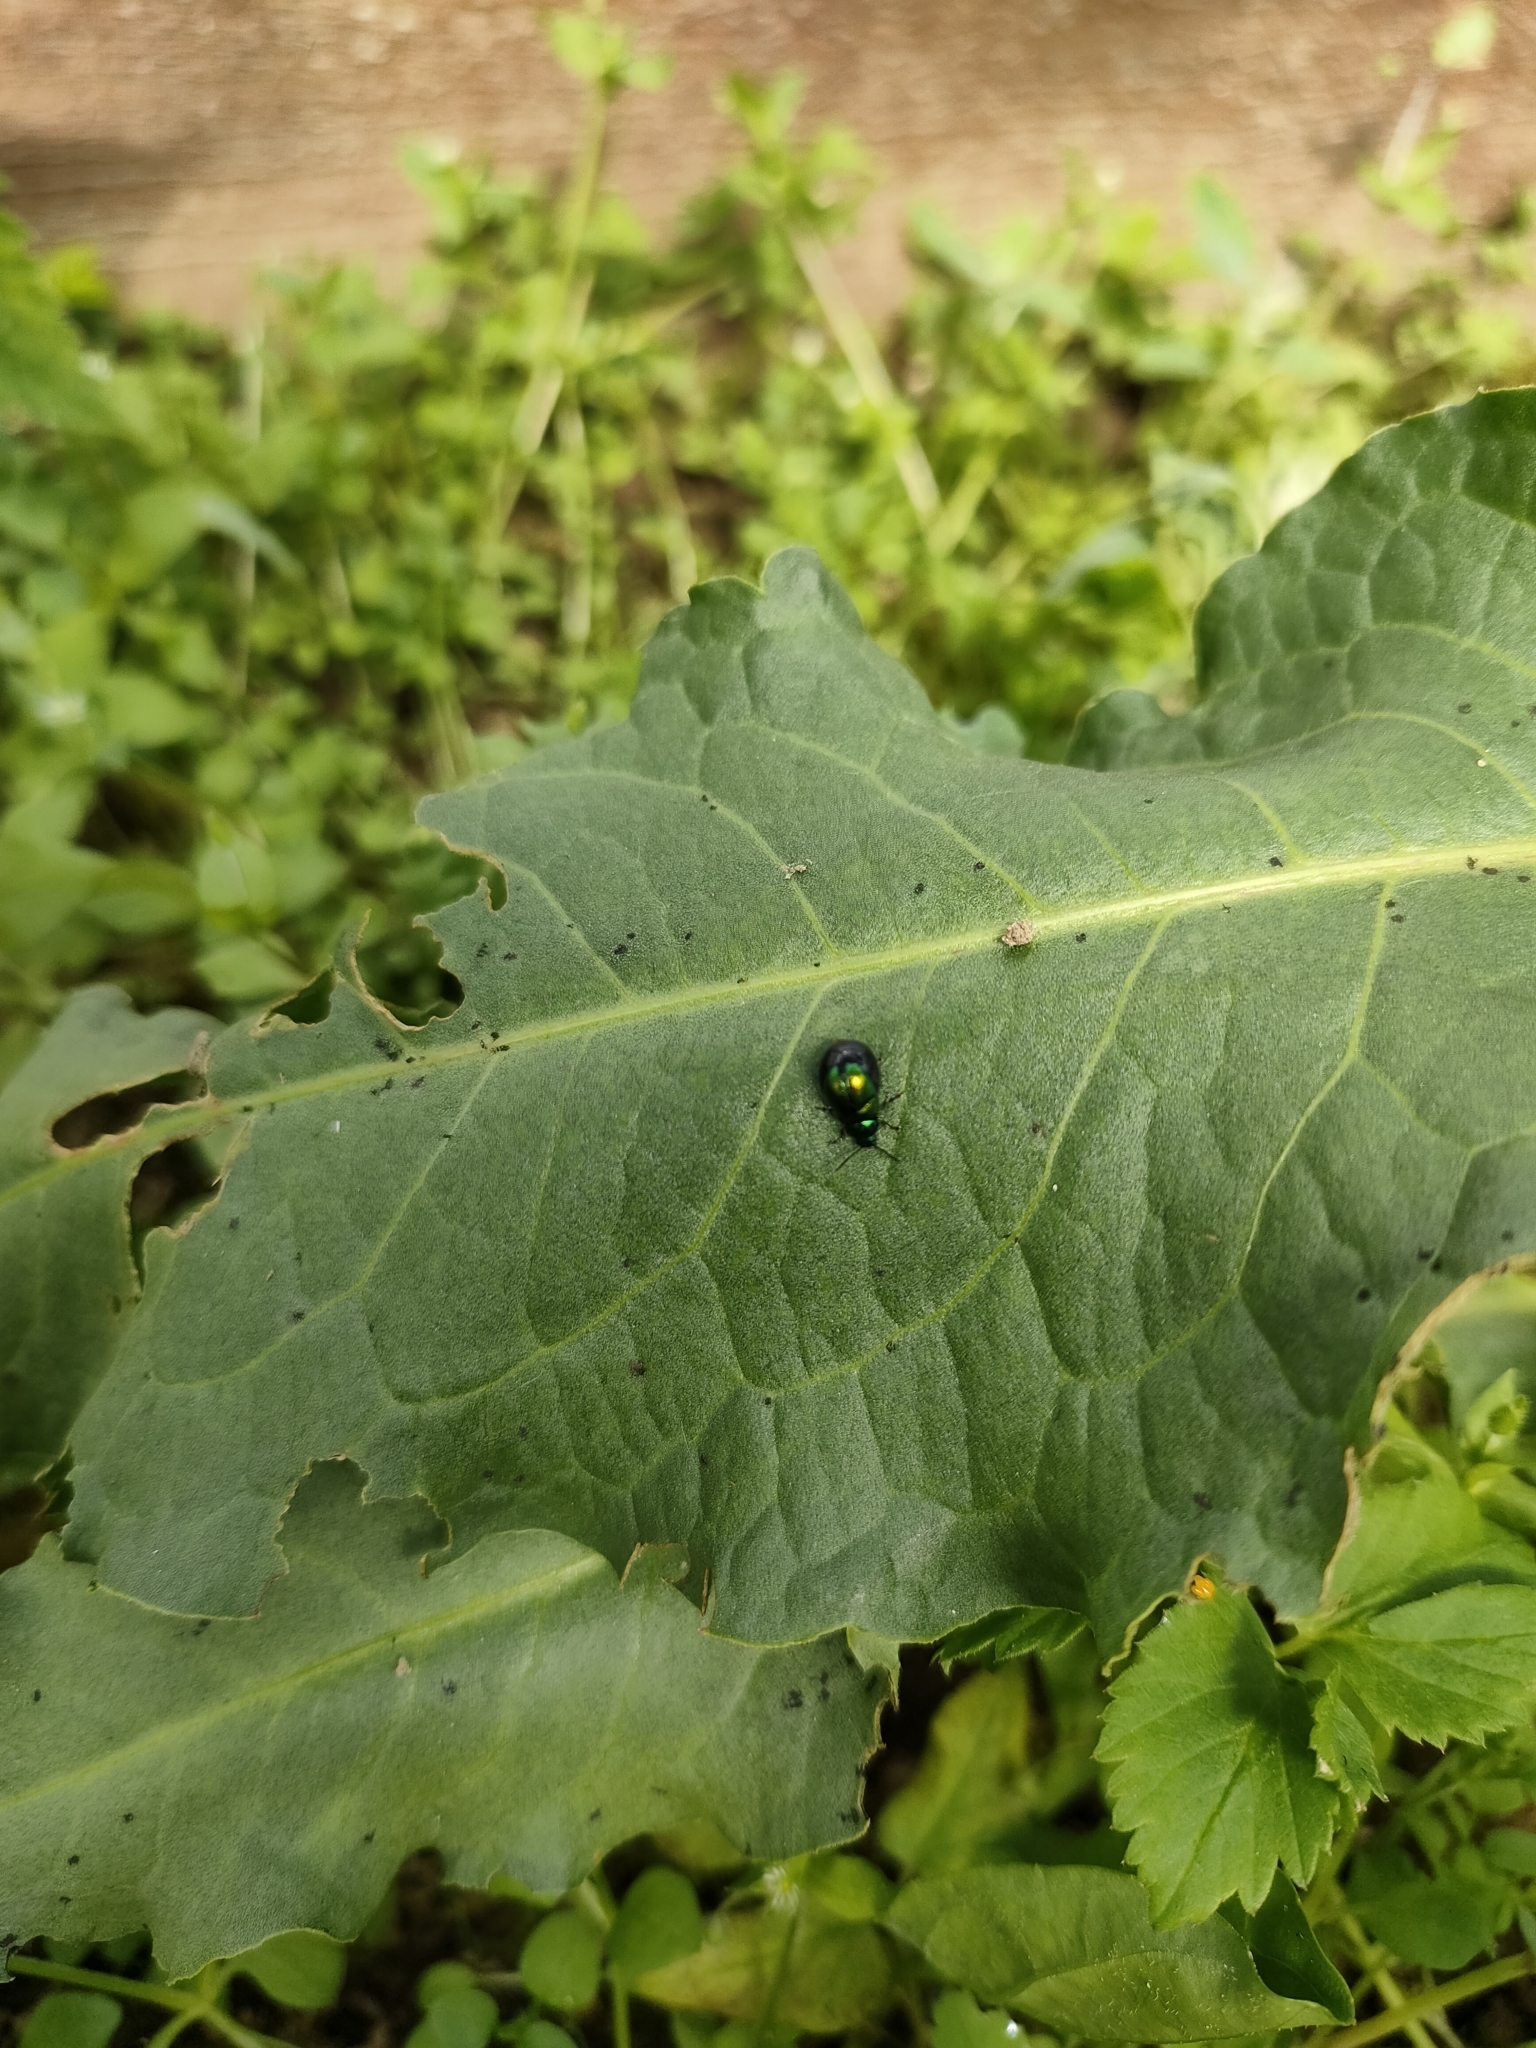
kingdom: Animalia
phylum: Arthropoda
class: Insecta
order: Coleoptera
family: Chrysomelidae
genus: Gastrophysa
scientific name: Gastrophysa viridula
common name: Green dock beetle
